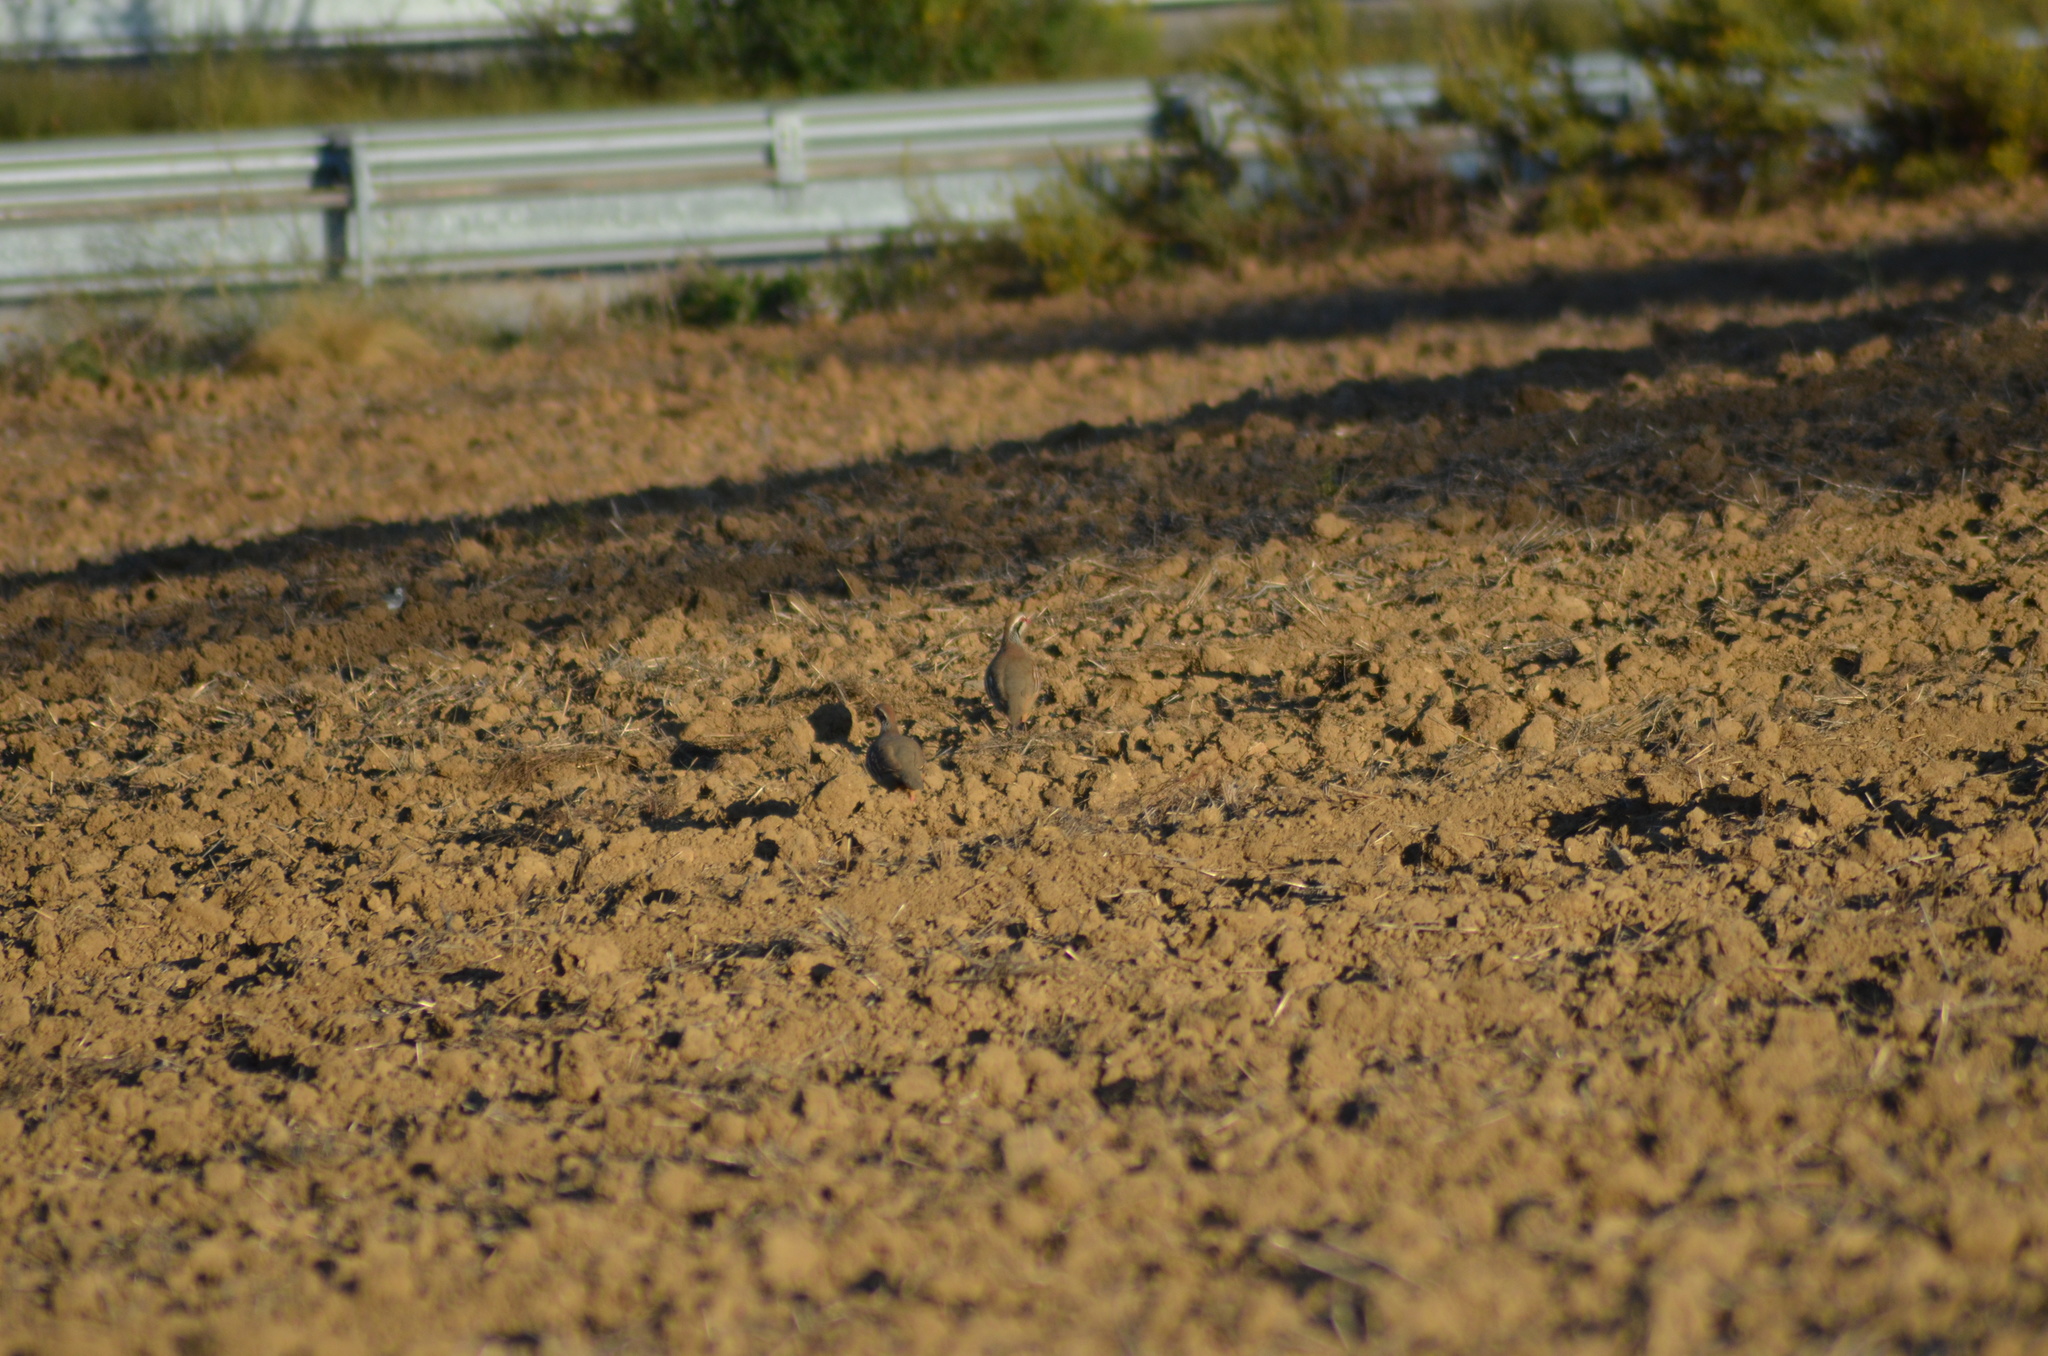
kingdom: Animalia
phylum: Chordata
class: Aves
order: Galliformes
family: Phasianidae
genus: Alectoris
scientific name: Alectoris rufa
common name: Red-legged partridge
